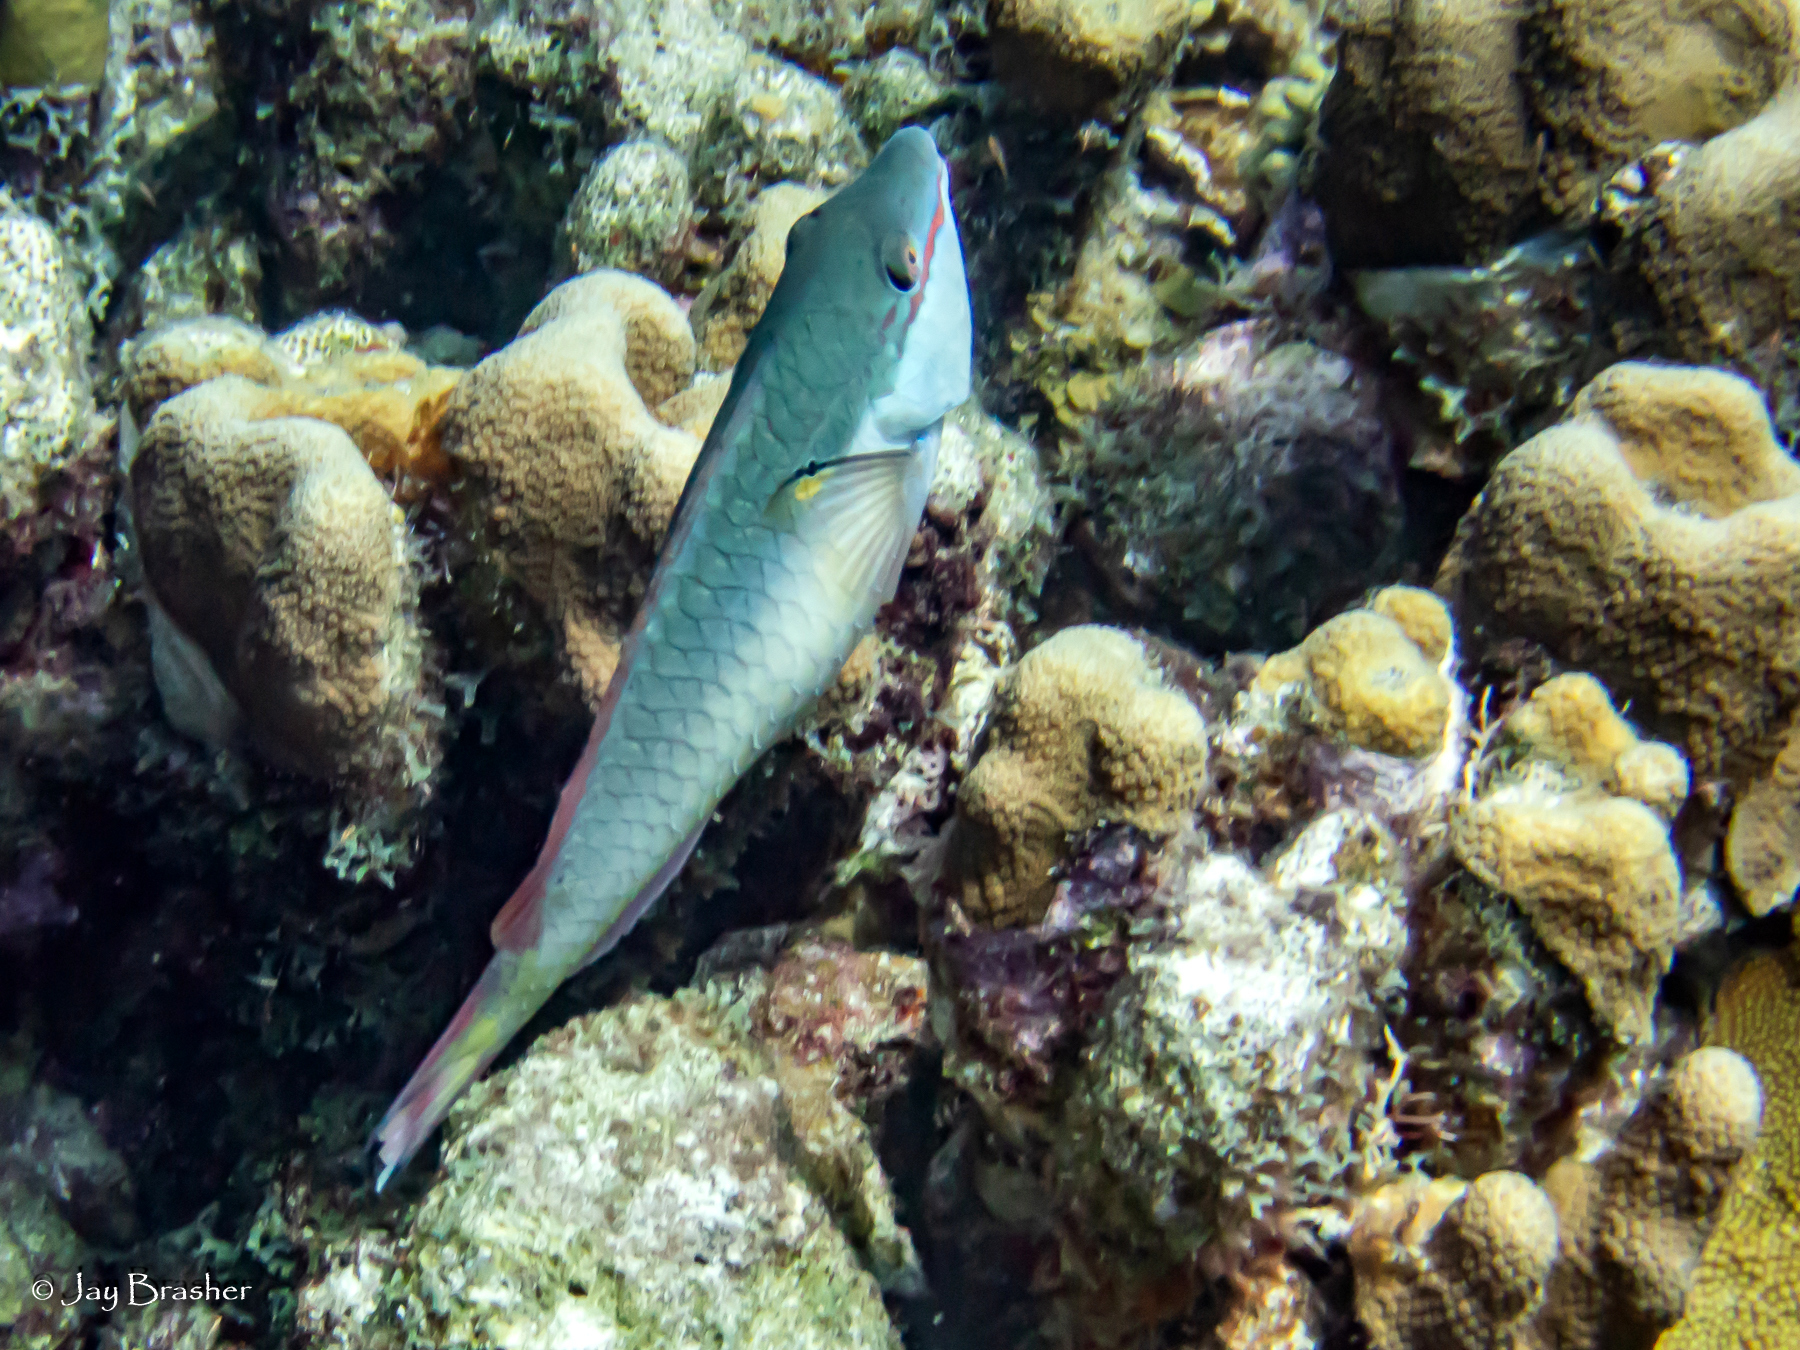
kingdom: Animalia
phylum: Chordata
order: Perciformes
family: Scaridae
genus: Sparisoma
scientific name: Sparisoma aurofrenatum
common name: Redband parrotfish
